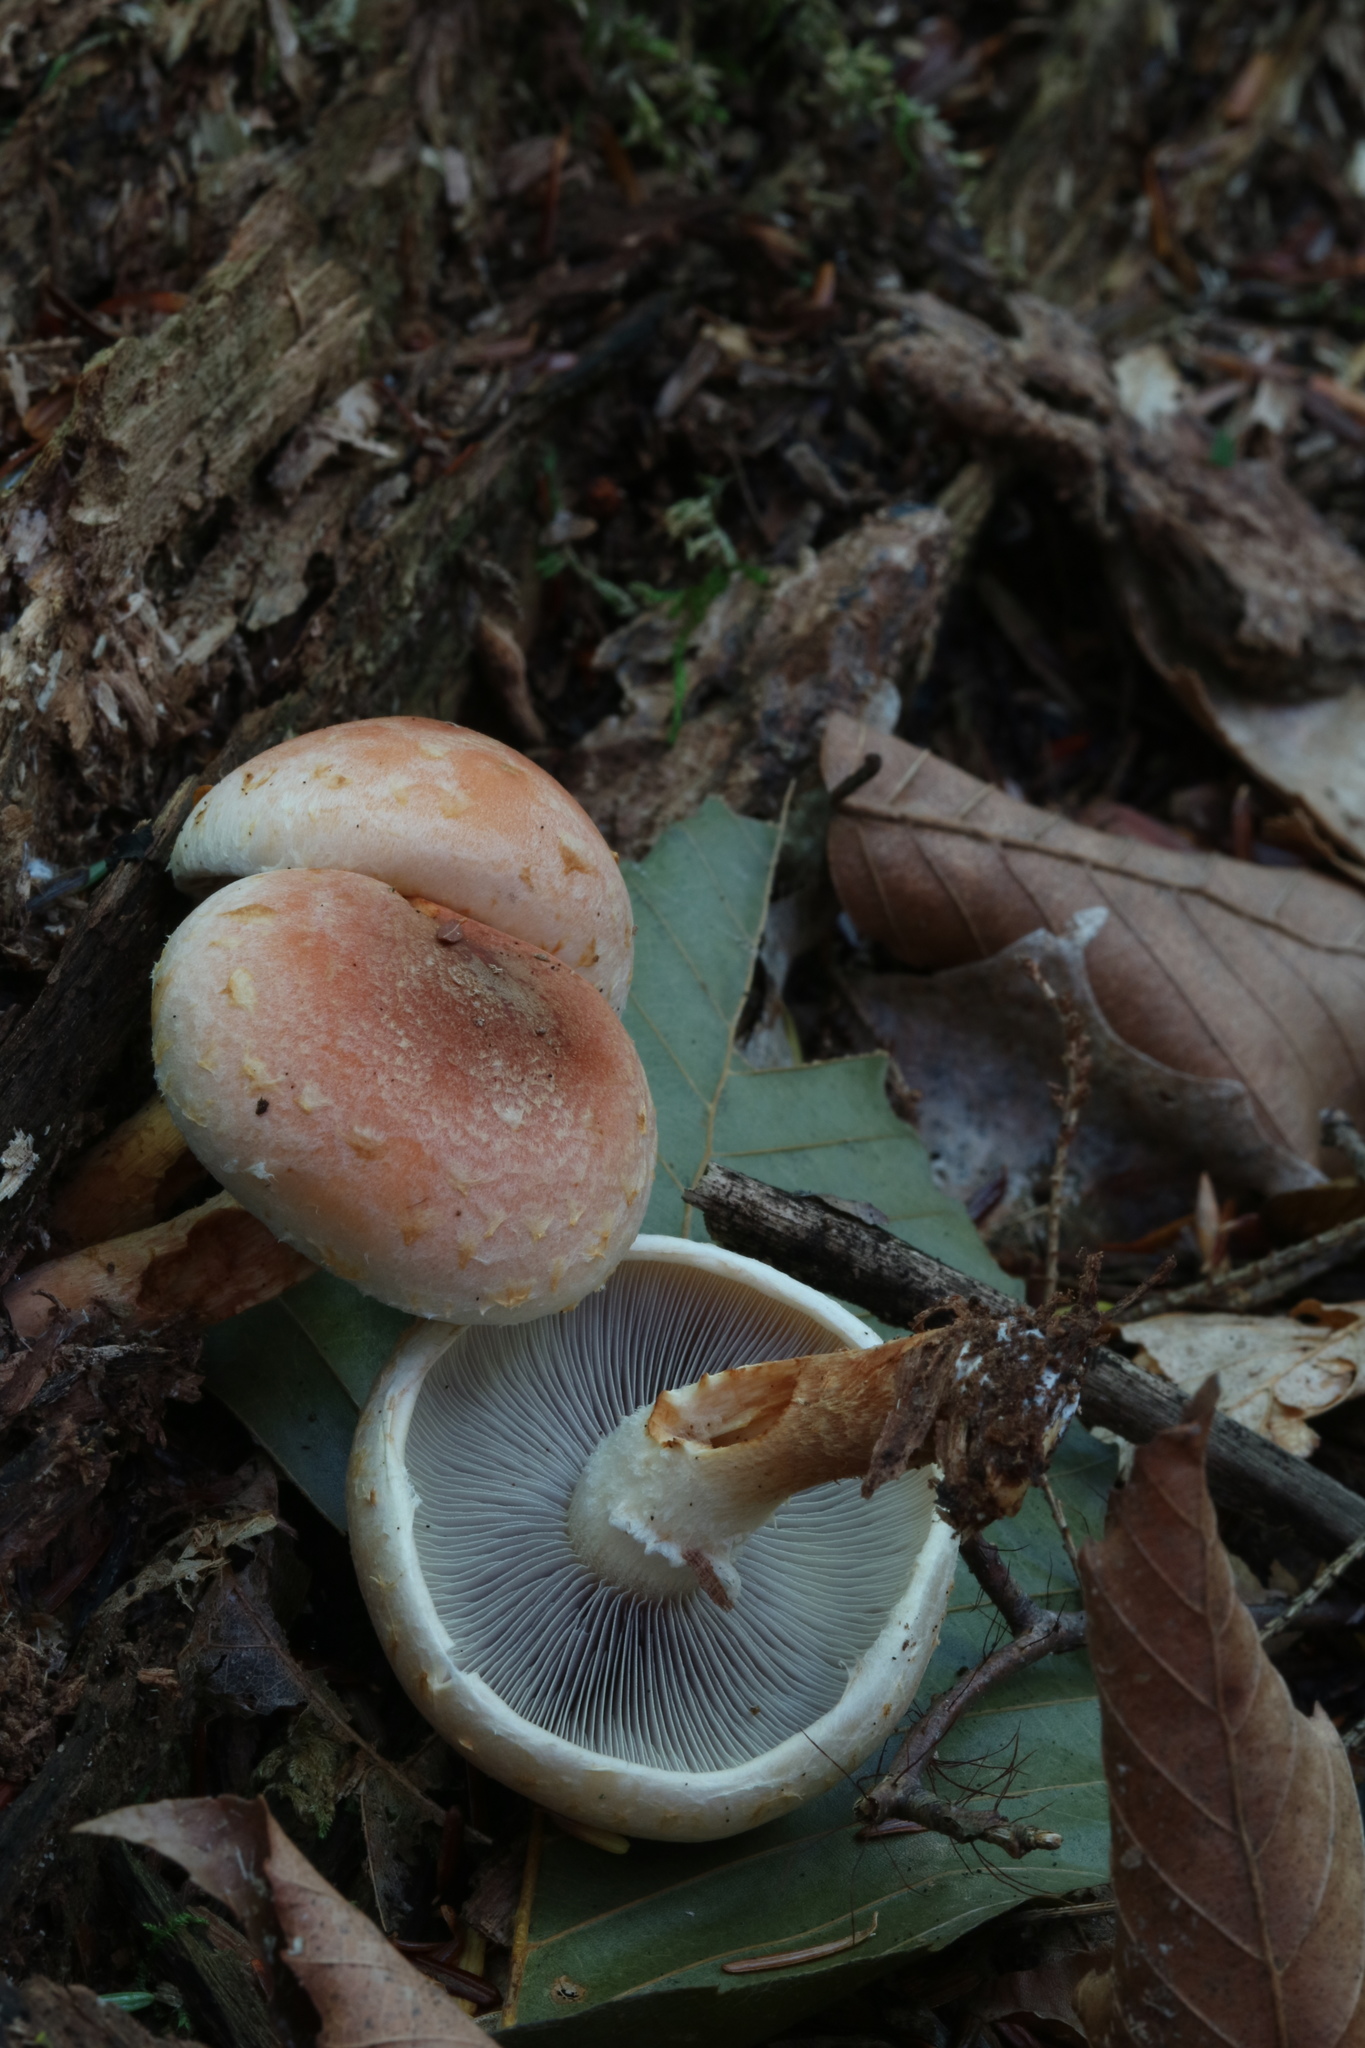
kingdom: Fungi
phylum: Basidiomycota
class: Agaricomycetes
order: Agaricales
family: Strophariaceae
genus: Hypholoma
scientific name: Hypholoma lateritium
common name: Brick caps
